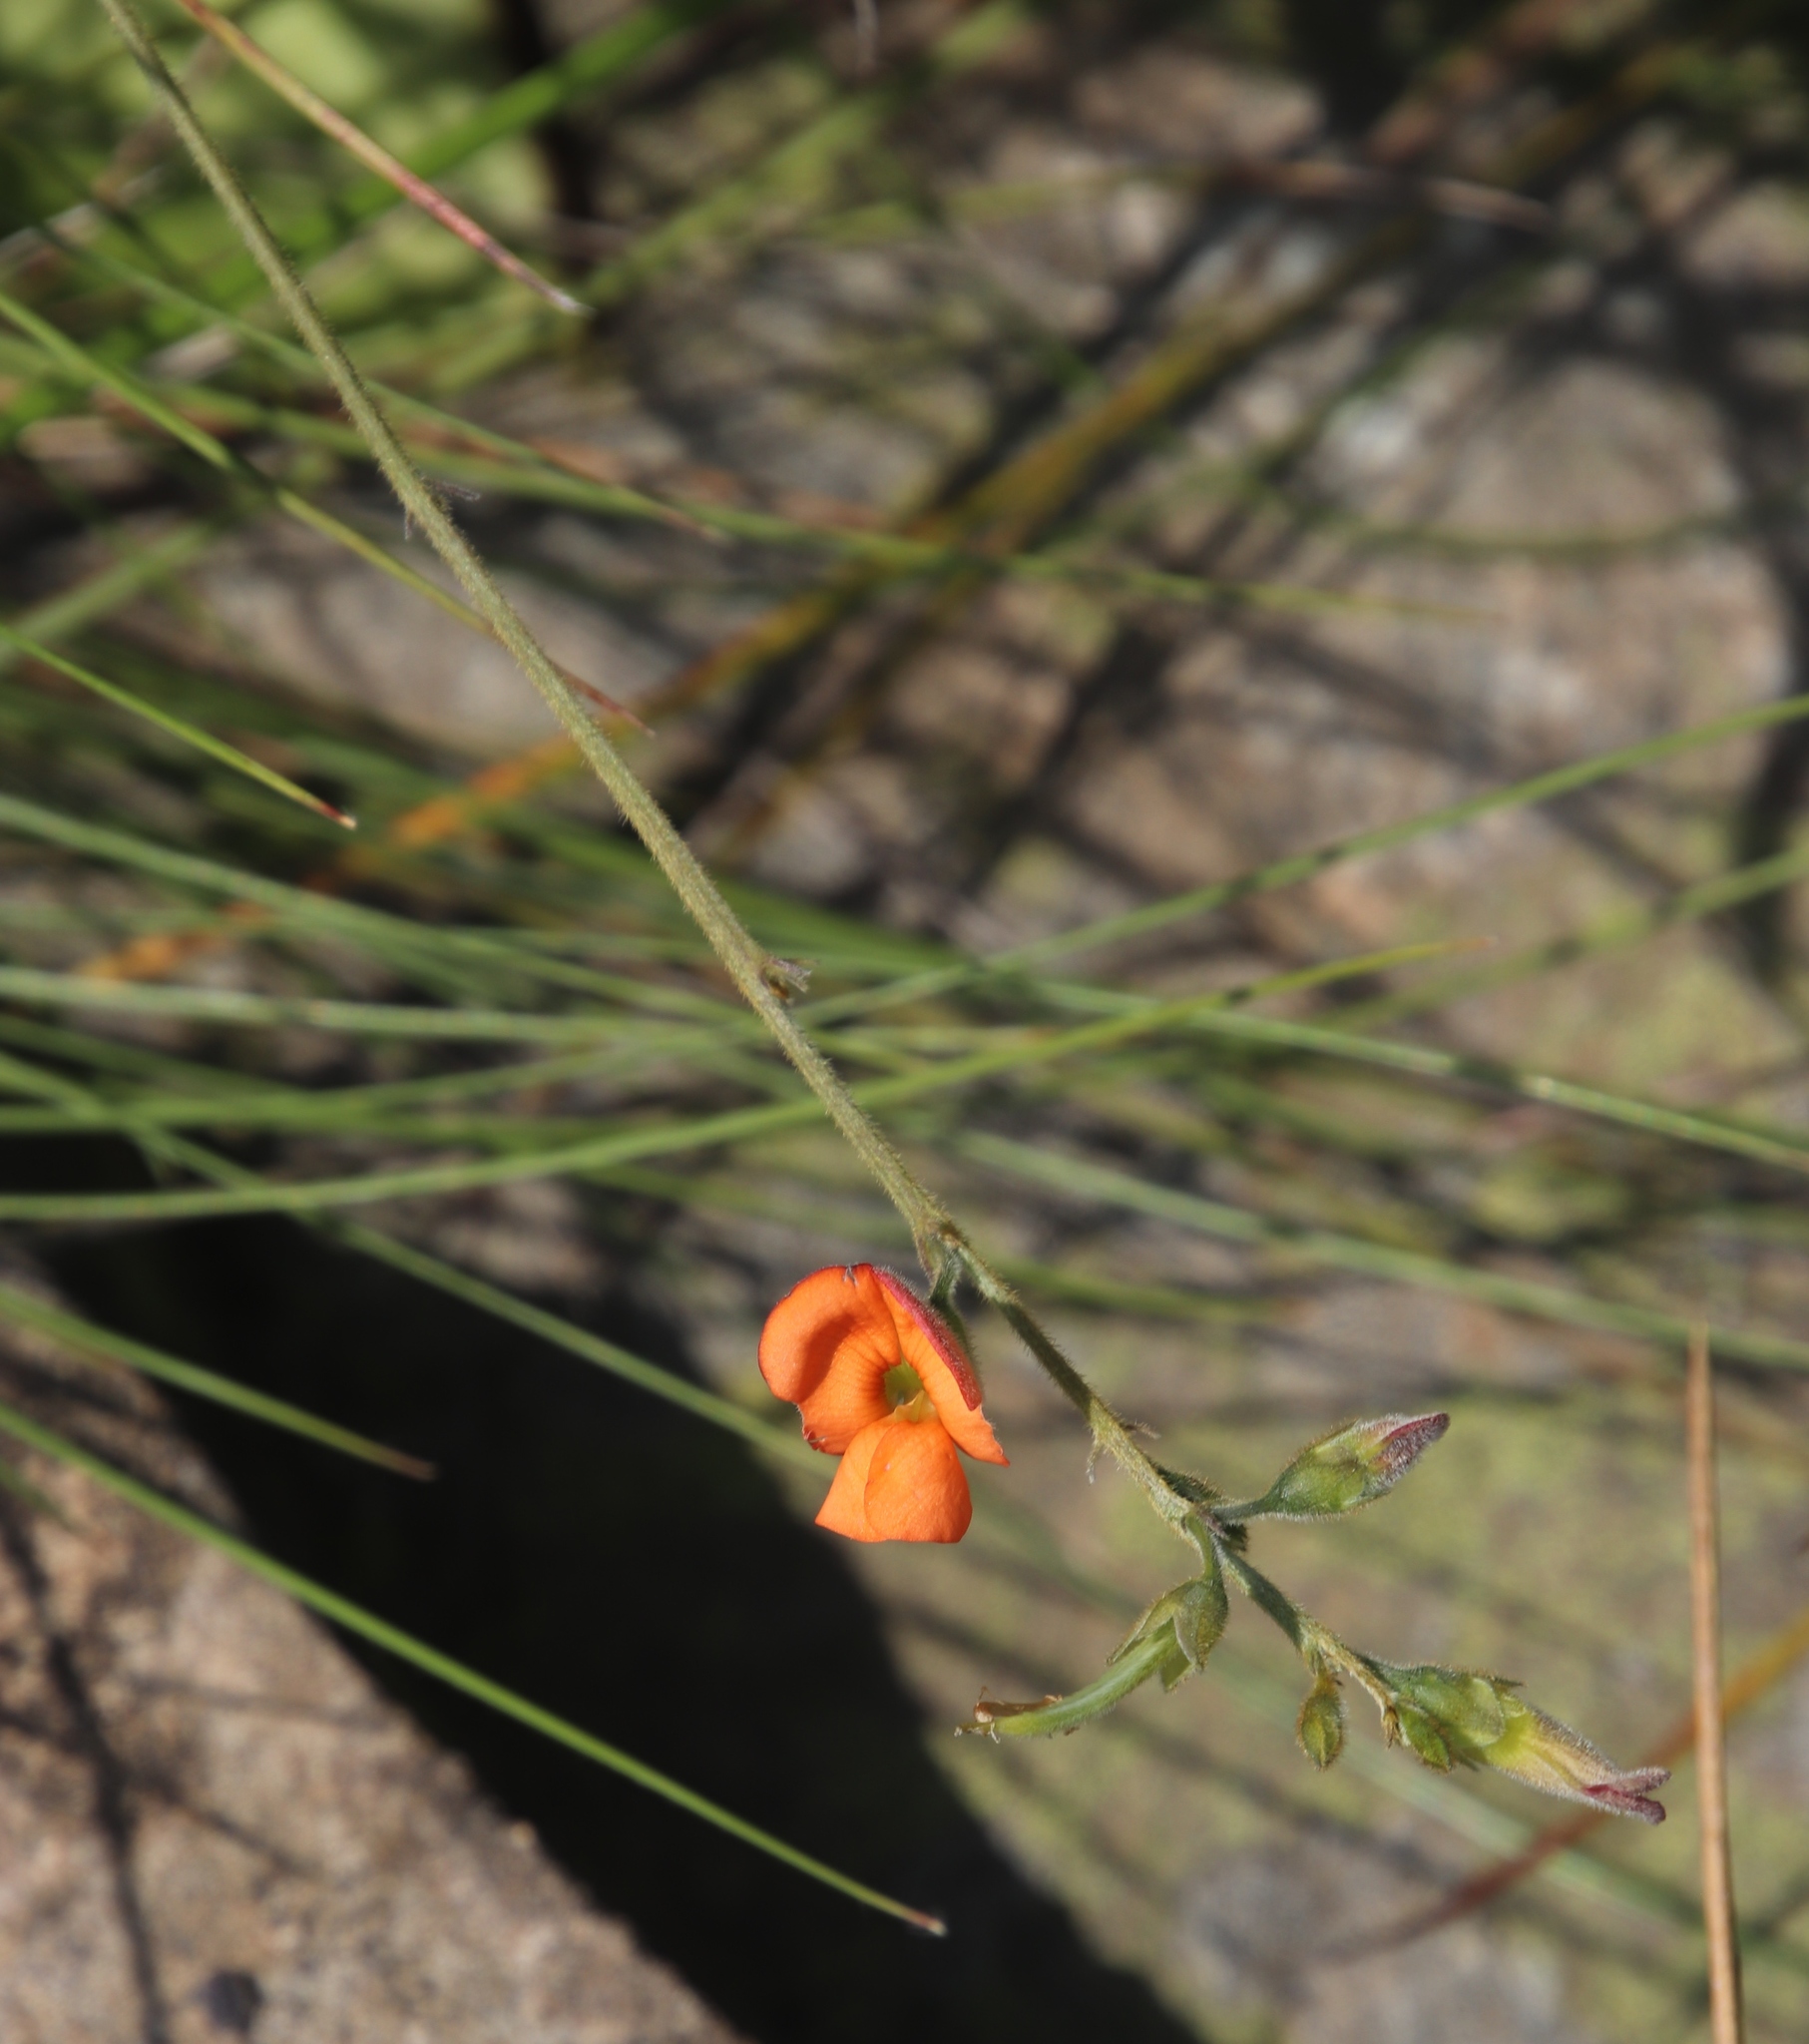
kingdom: Plantae
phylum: Tracheophyta
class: Magnoliopsida
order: Fabales
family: Fabaceae
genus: Tephrosia
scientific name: Tephrosia elongata
